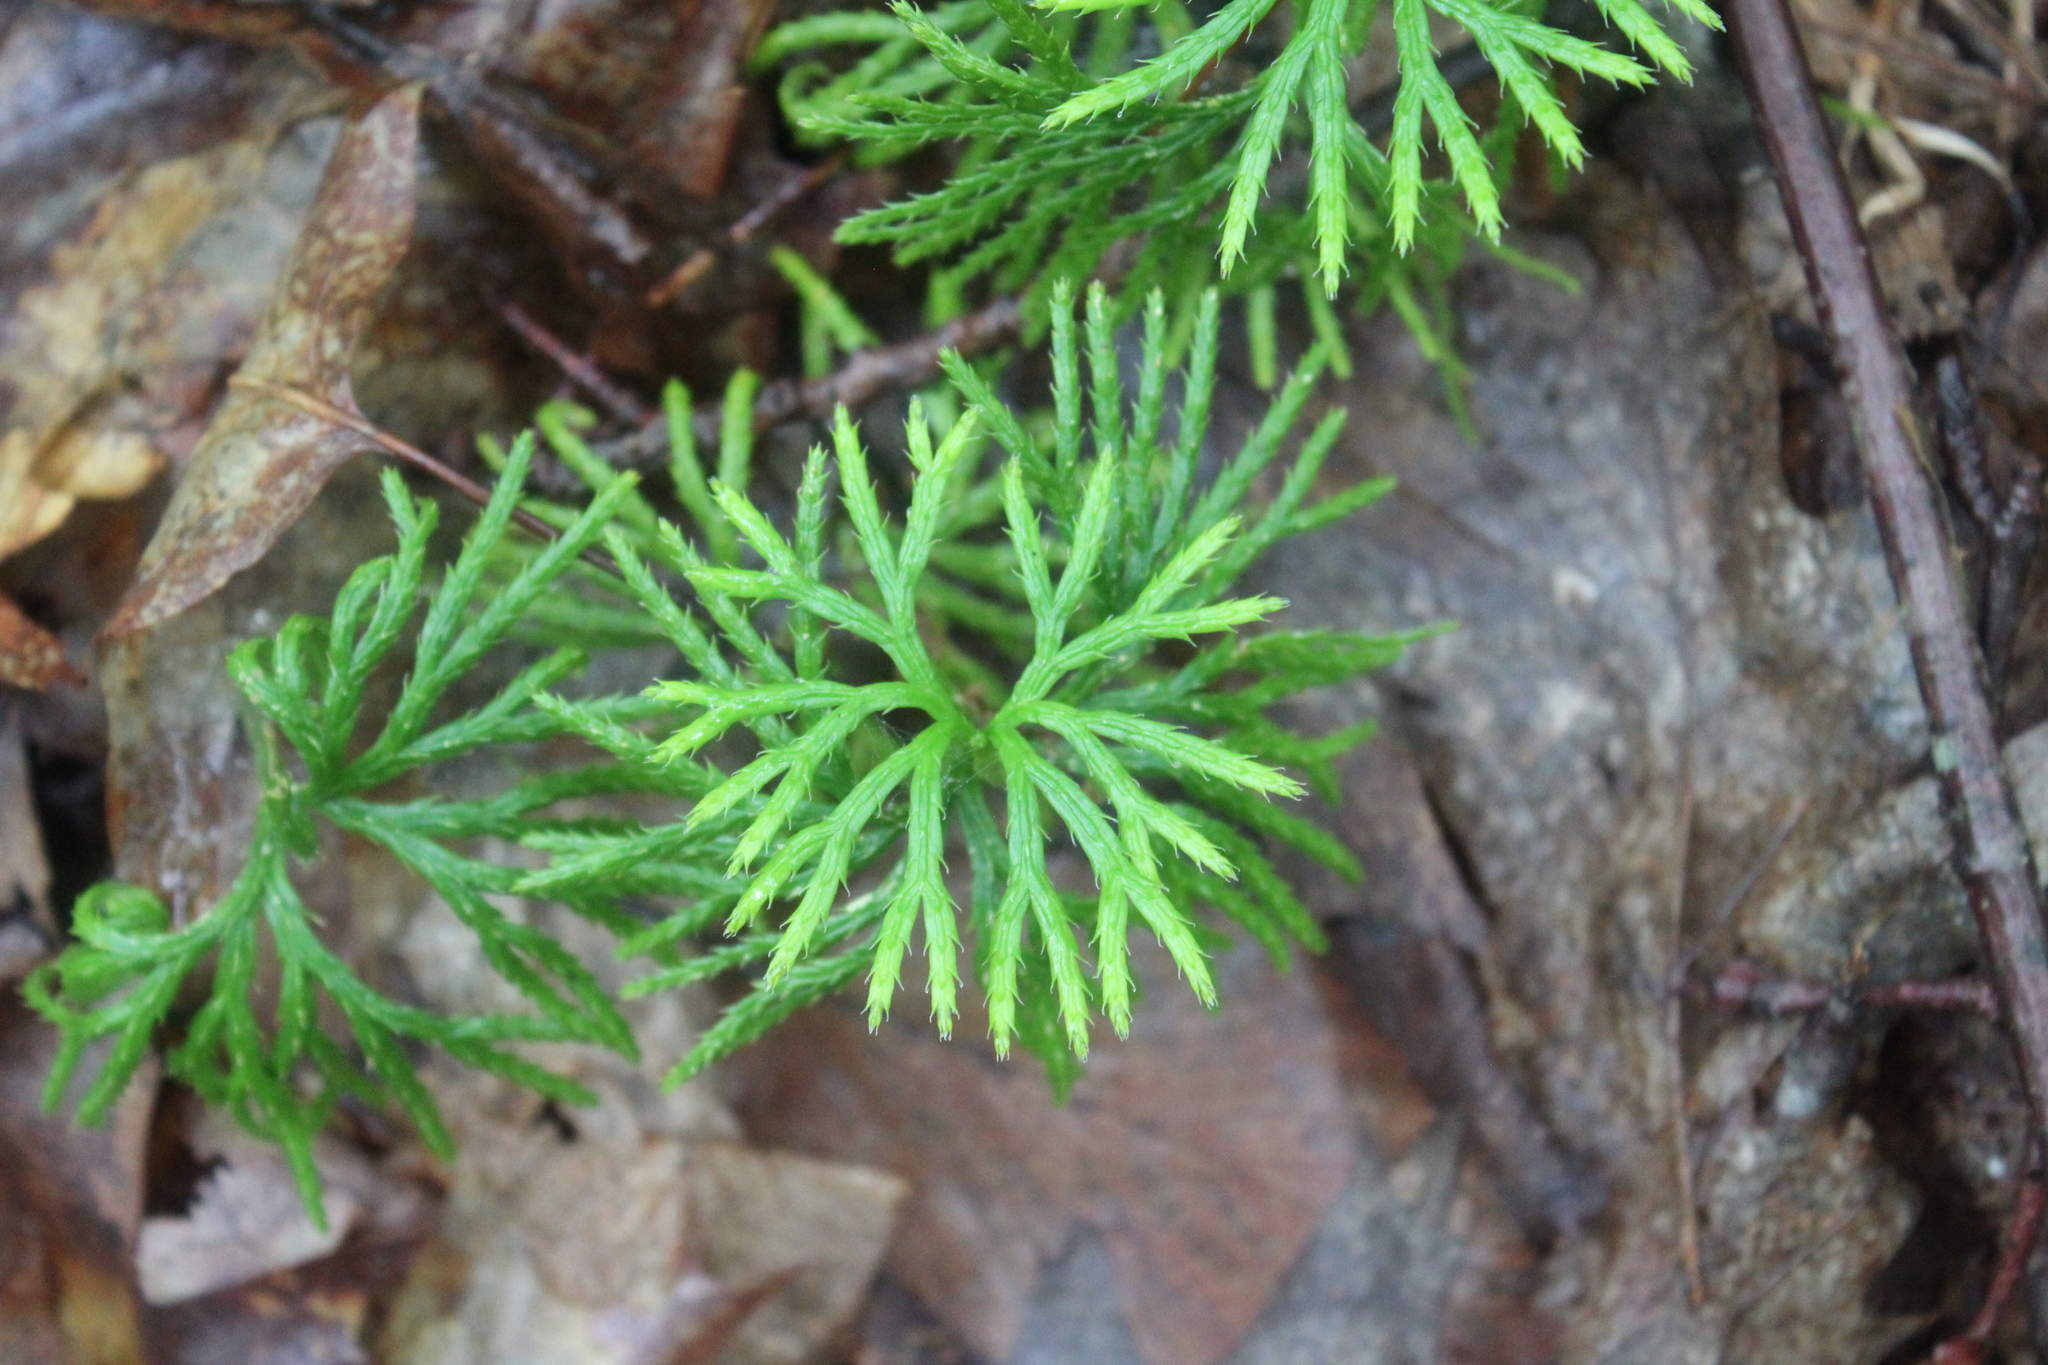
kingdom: Plantae
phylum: Tracheophyta
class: Lycopodiopsida
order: Lycopodiales
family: Lycopodiaceae
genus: Diphasiastrum
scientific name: Diphasiastrum digitatum
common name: Southern running-pine
